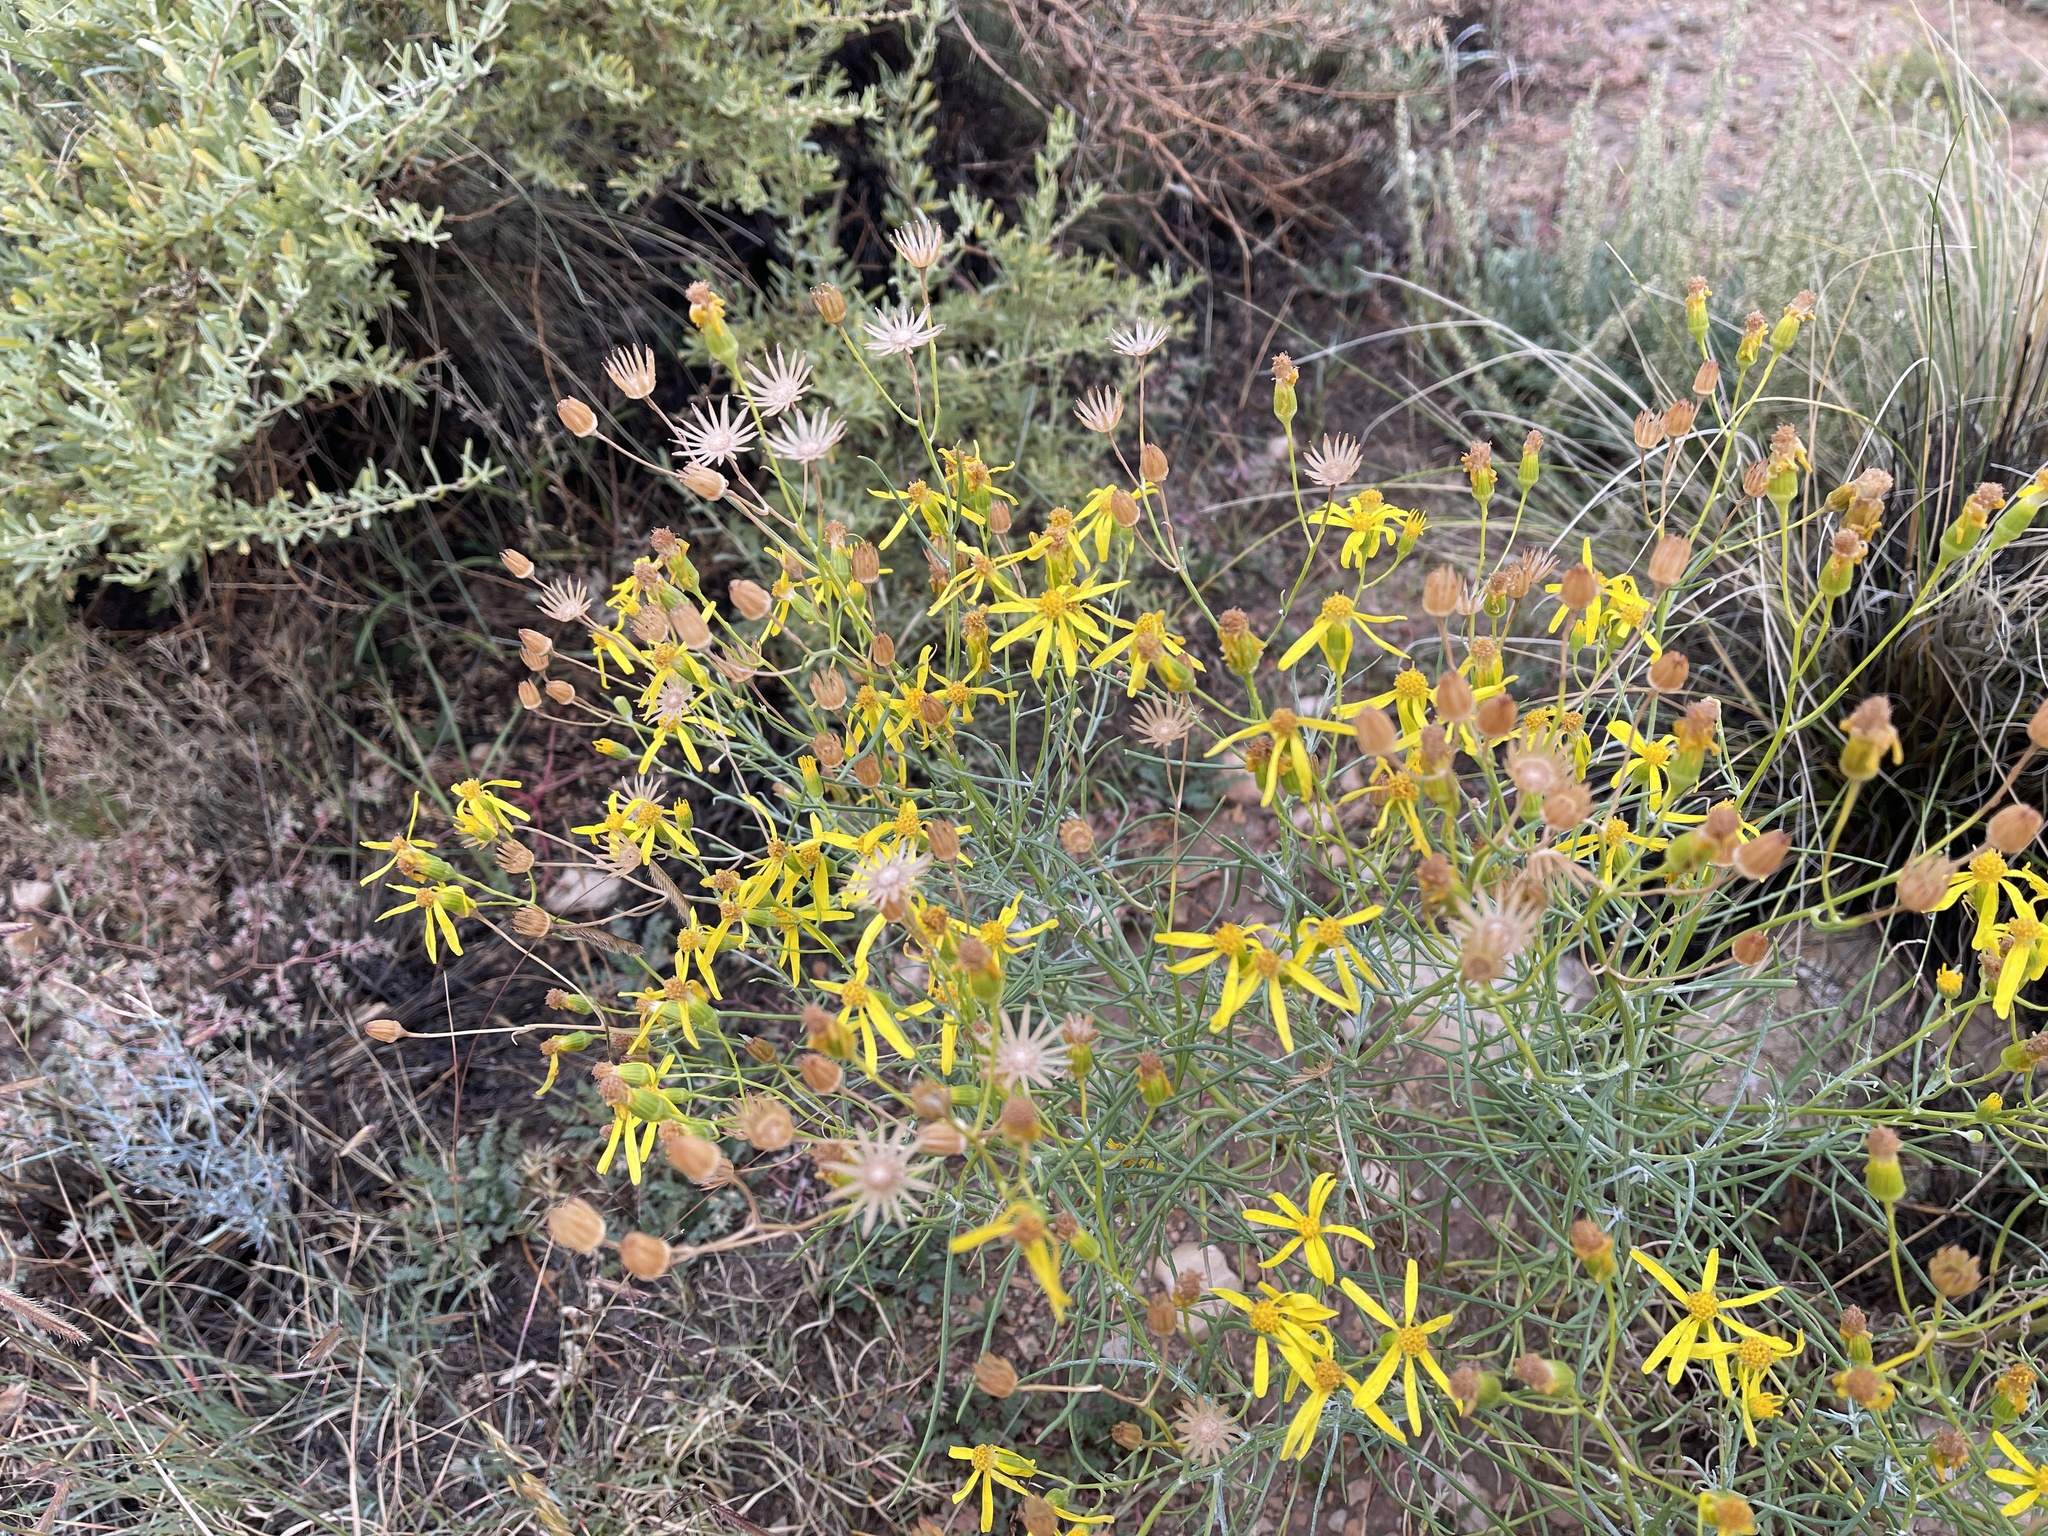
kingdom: Plantae
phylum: Tracheophyta
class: Magnoliopsida
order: Asterales
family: Asteraceae
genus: Senecio
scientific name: Senecio spartioides
